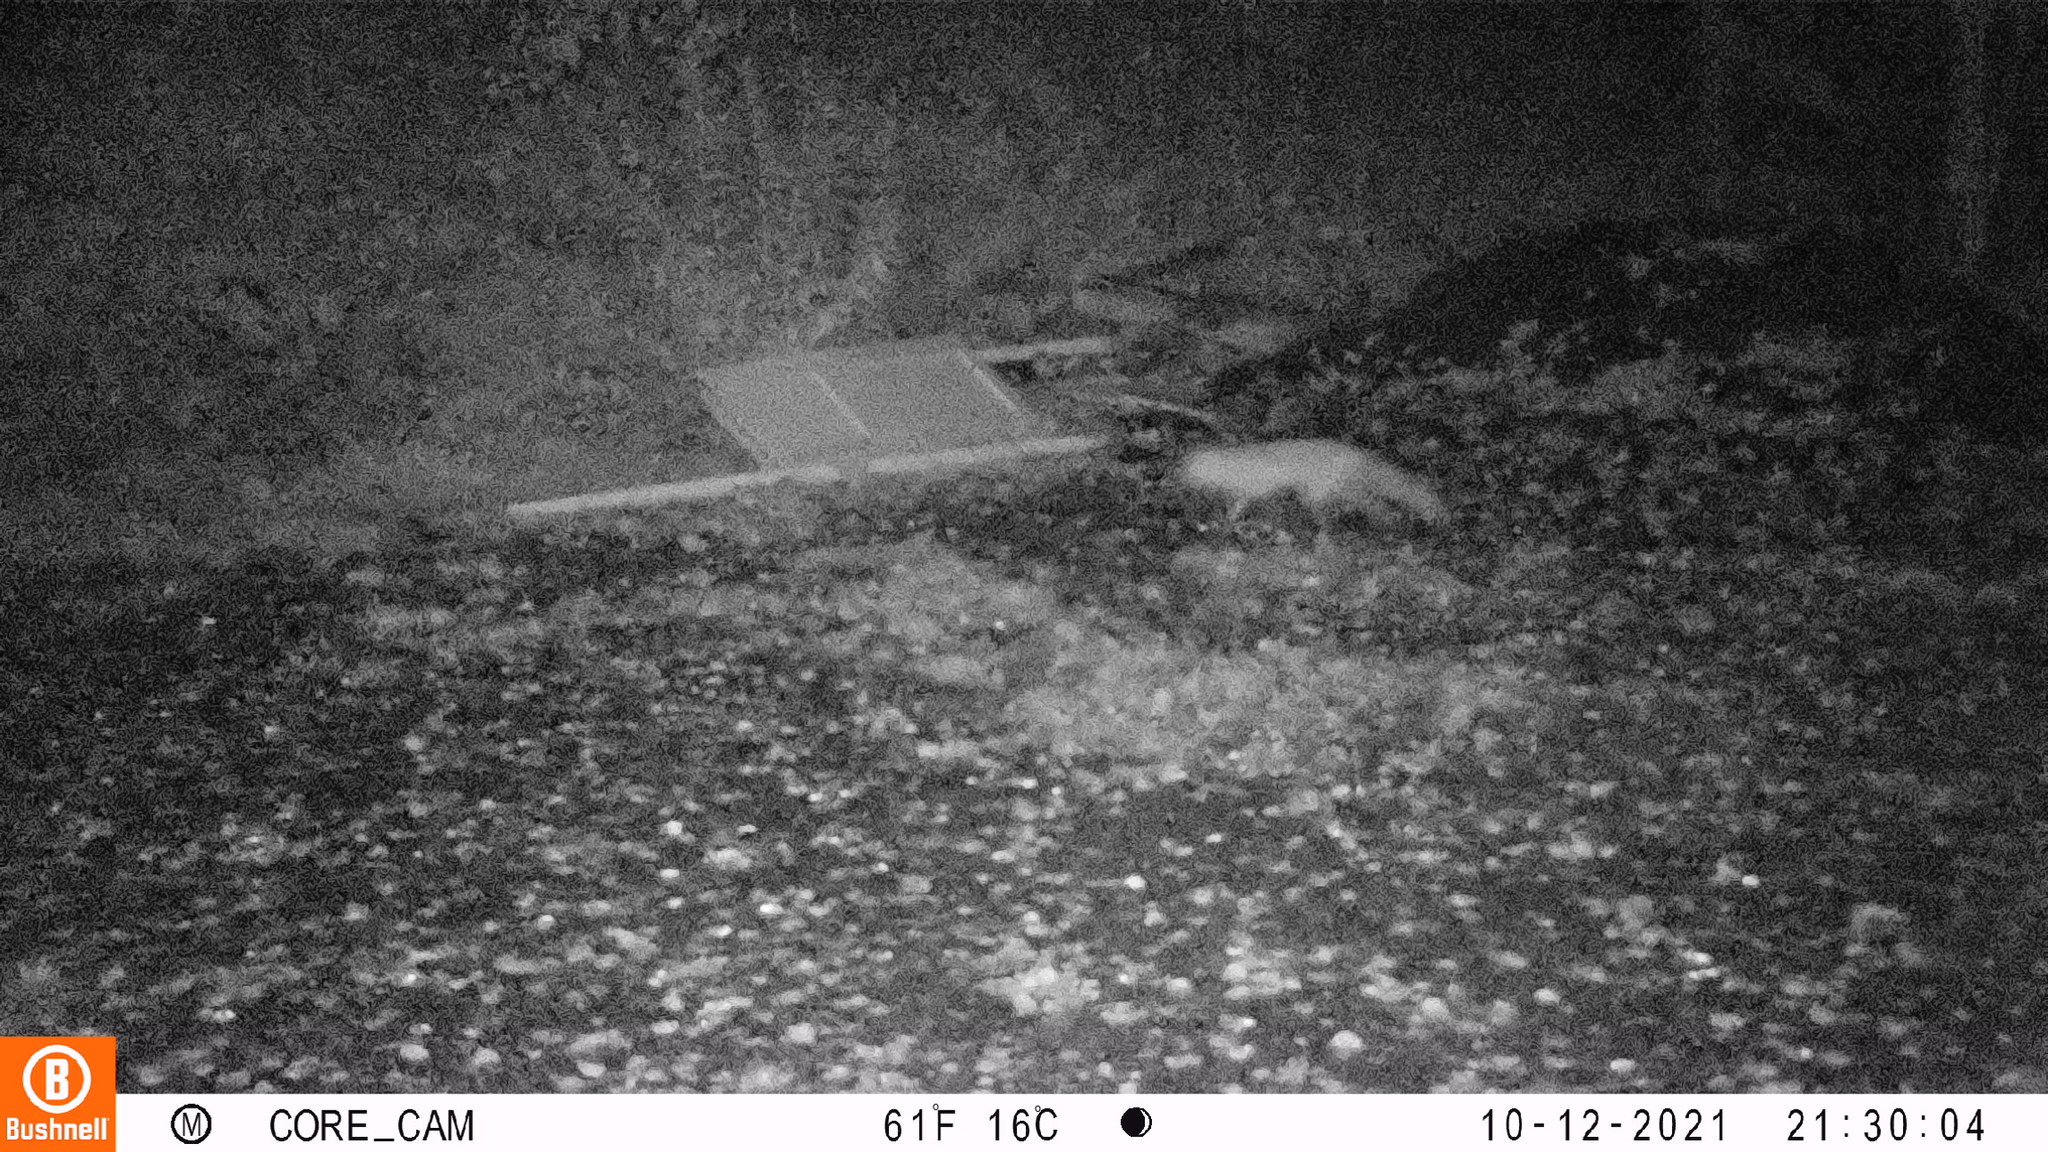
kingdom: Animalia
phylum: Chordata
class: Mammalia
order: Carnivora
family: Canidae
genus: Vulpes
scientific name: Vulpes vulpes
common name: Red fox
